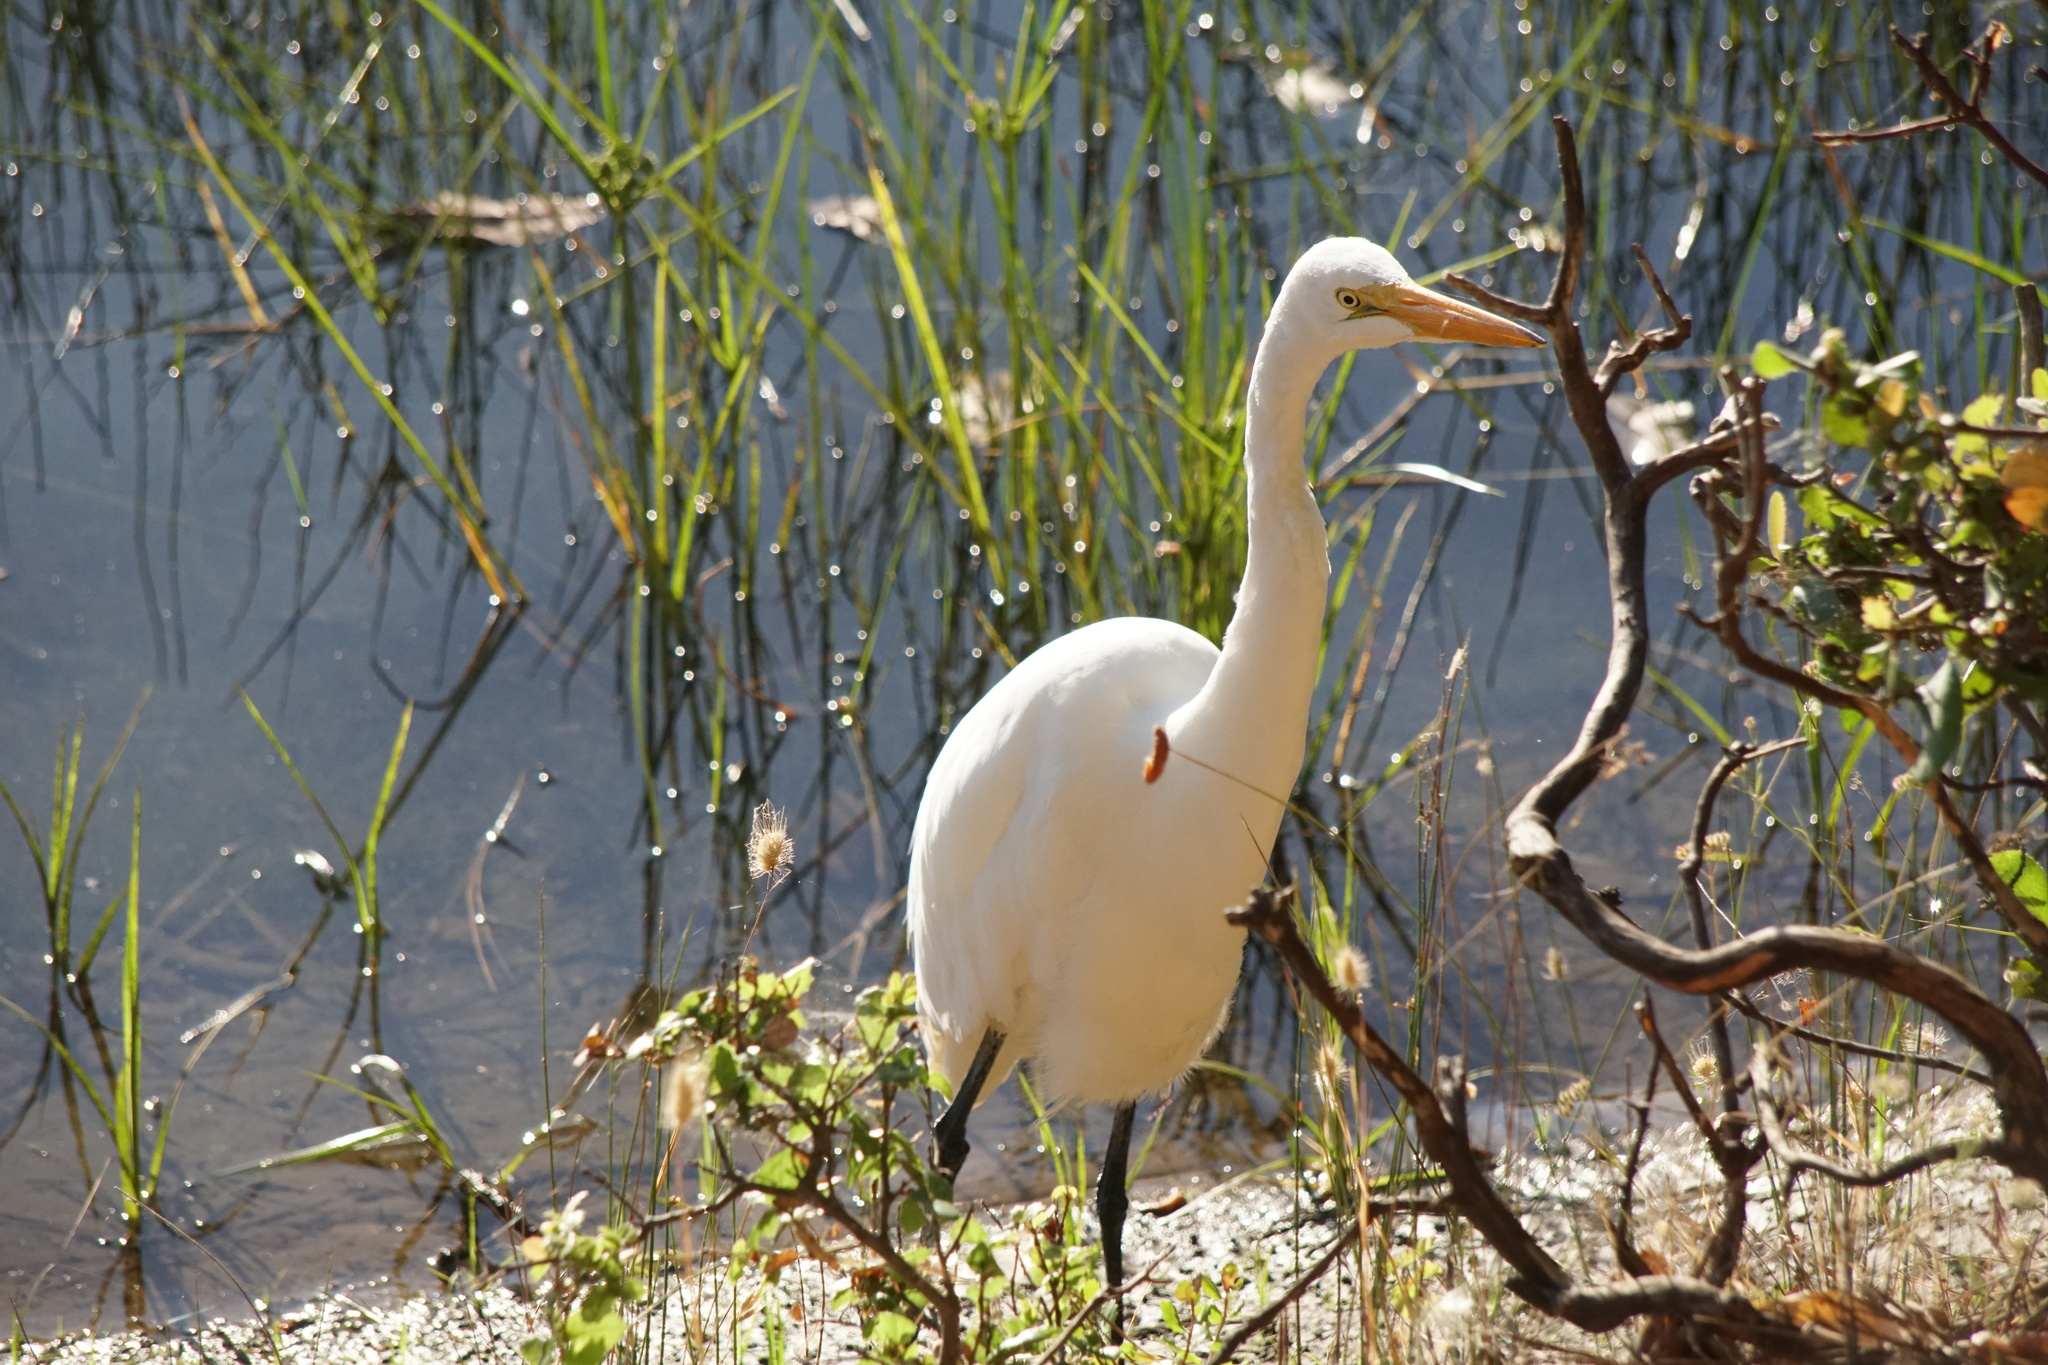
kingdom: Animalia
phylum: Chordata
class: Aves
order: Pelecaniformes
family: Ardeidae
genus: Ardea
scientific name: Ardea alba
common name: Great egret
